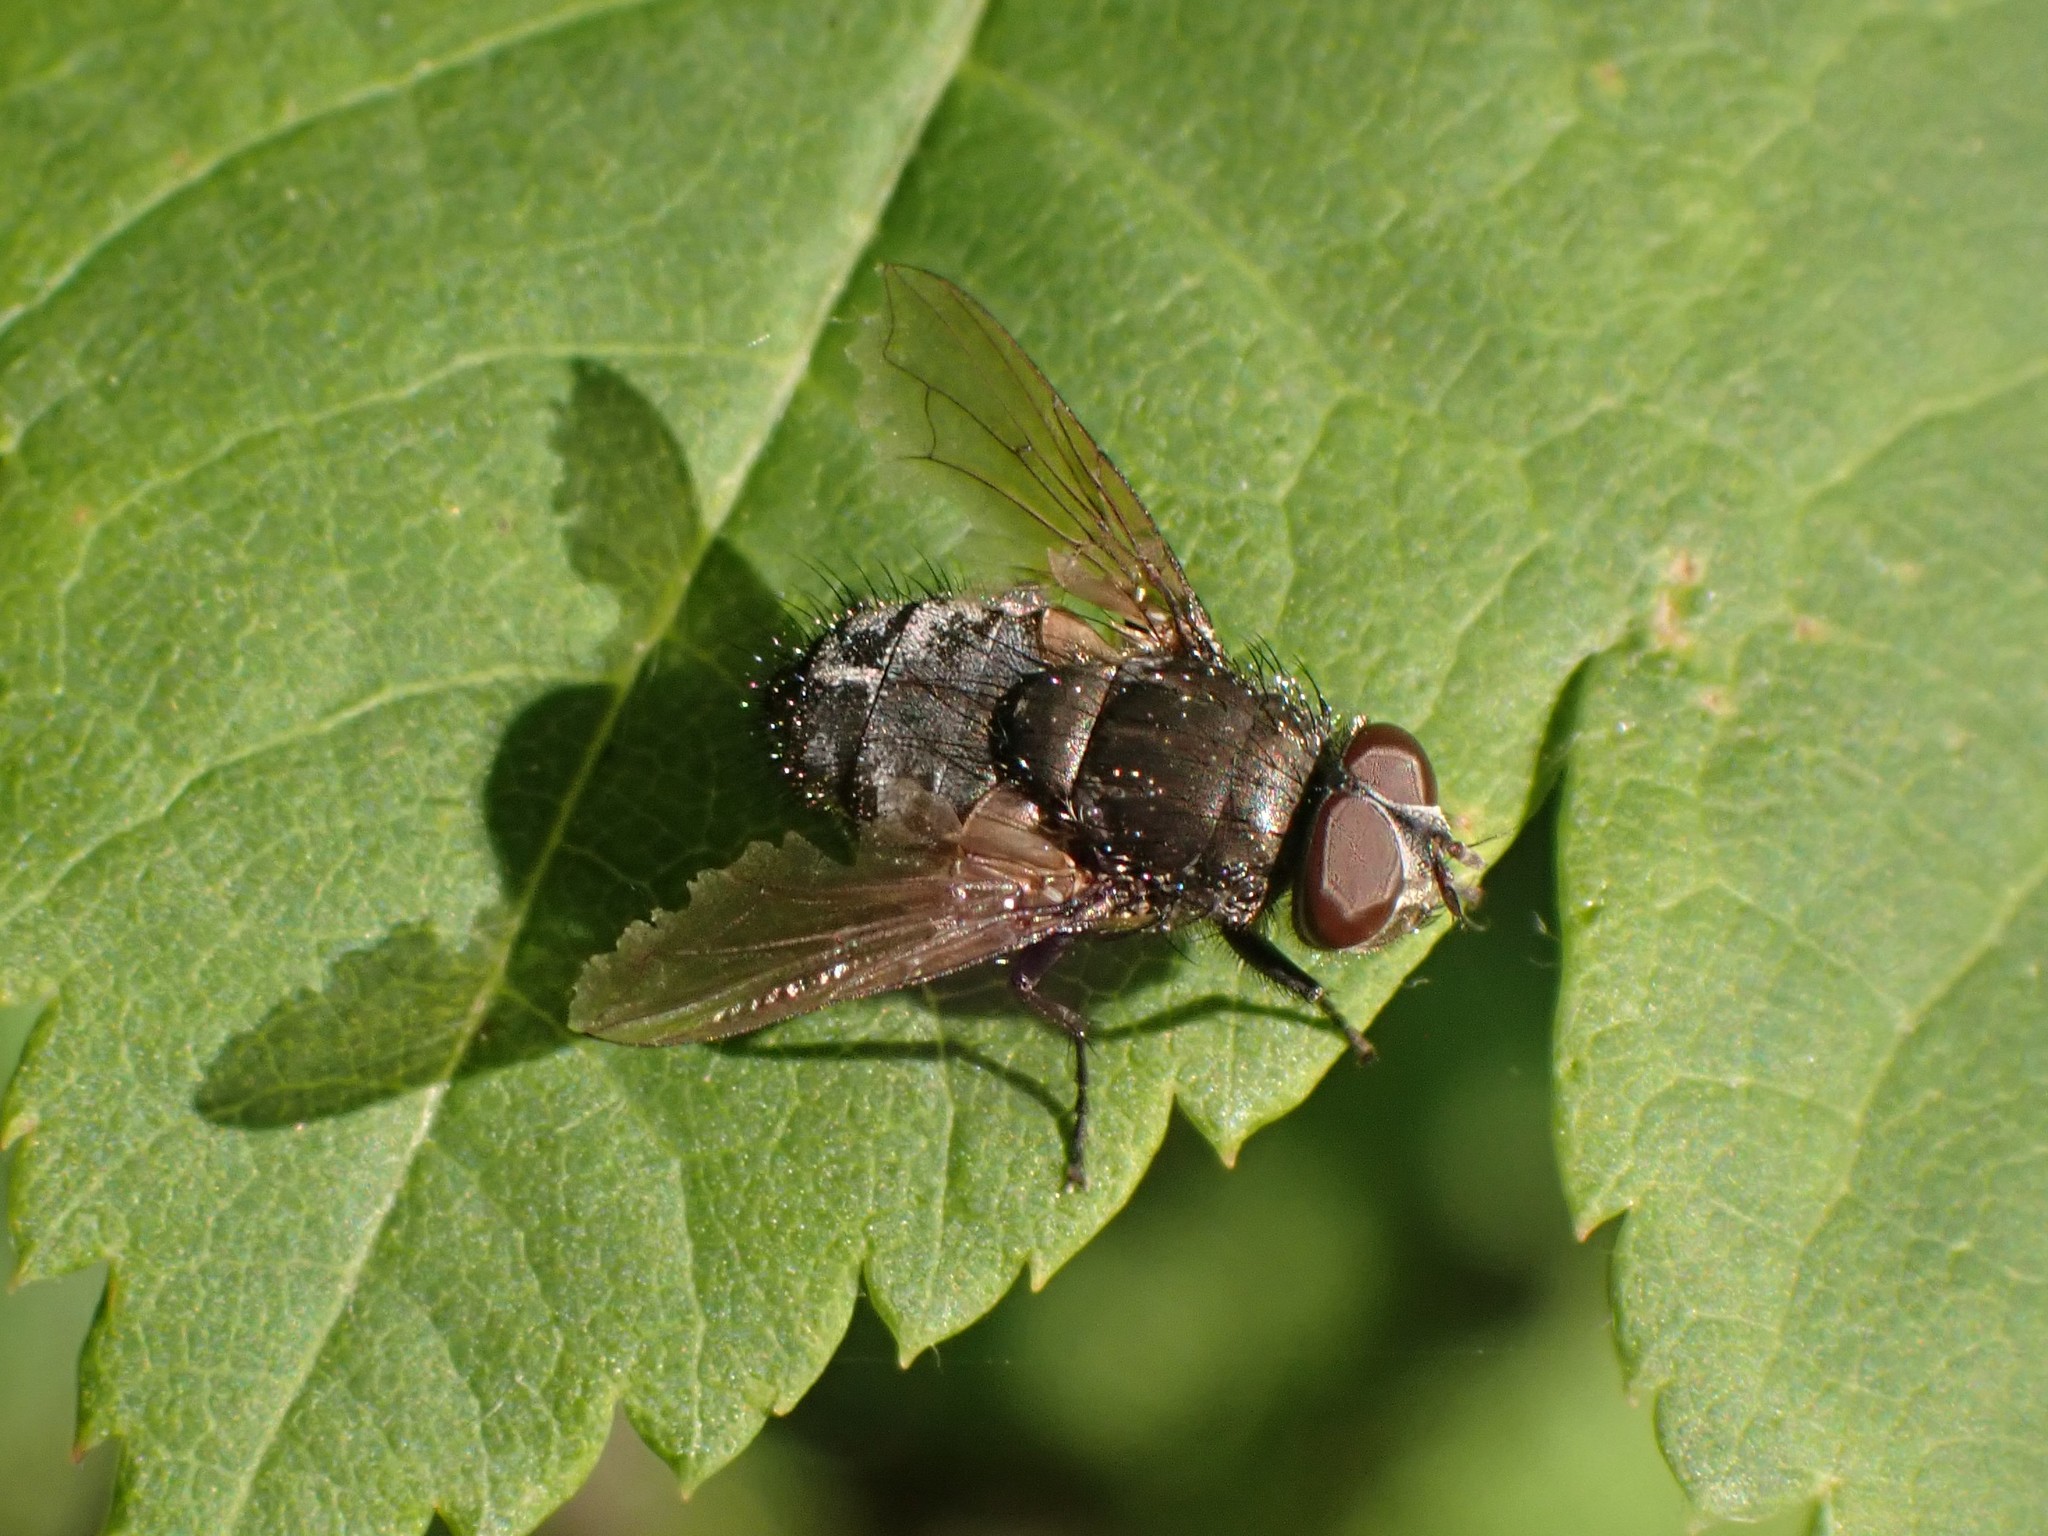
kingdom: Animalia
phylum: Arthropoda
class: Insecta
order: Diptera
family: Polleniidae
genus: Pollenia
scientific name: Pollenia
